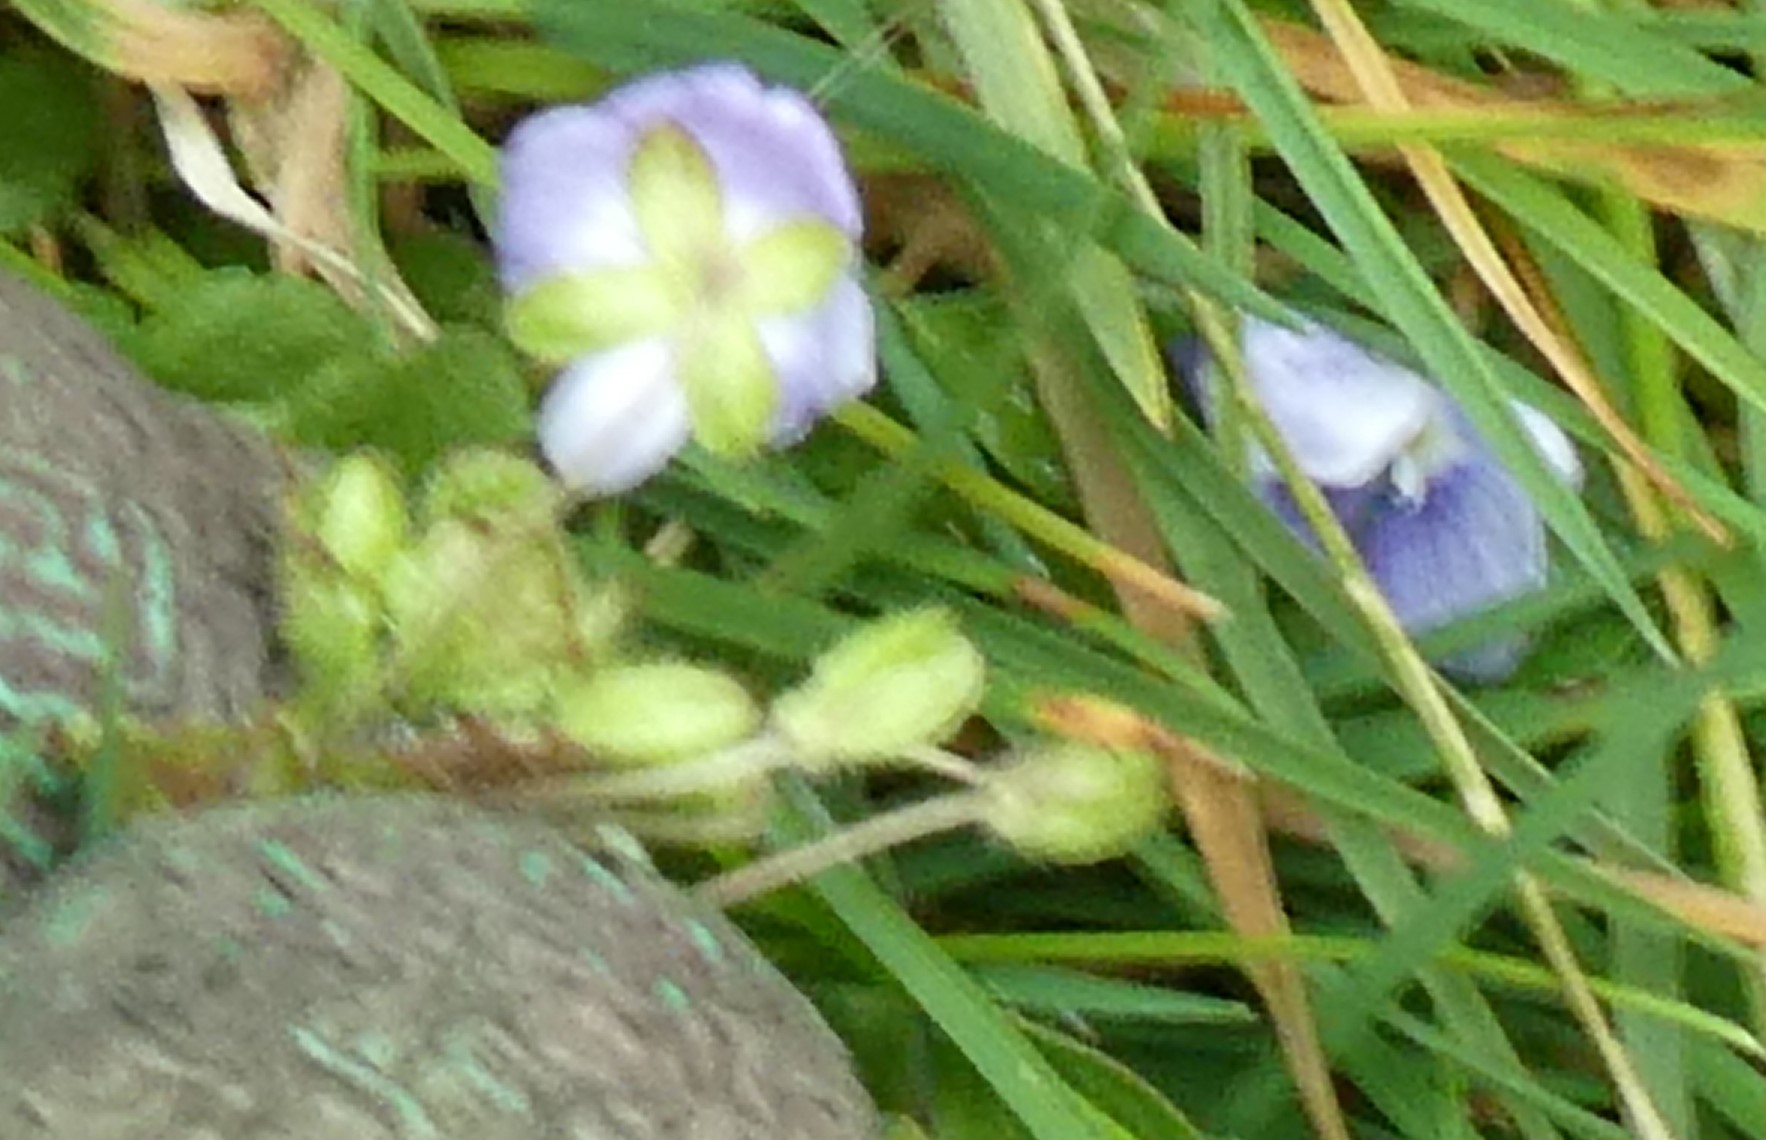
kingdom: Plantae
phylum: Tracheophyta
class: Magnoliopsida
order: Lamiales
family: Plantaginaceae
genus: Veronica
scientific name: Veronica filiformis
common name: Slender speedwell
